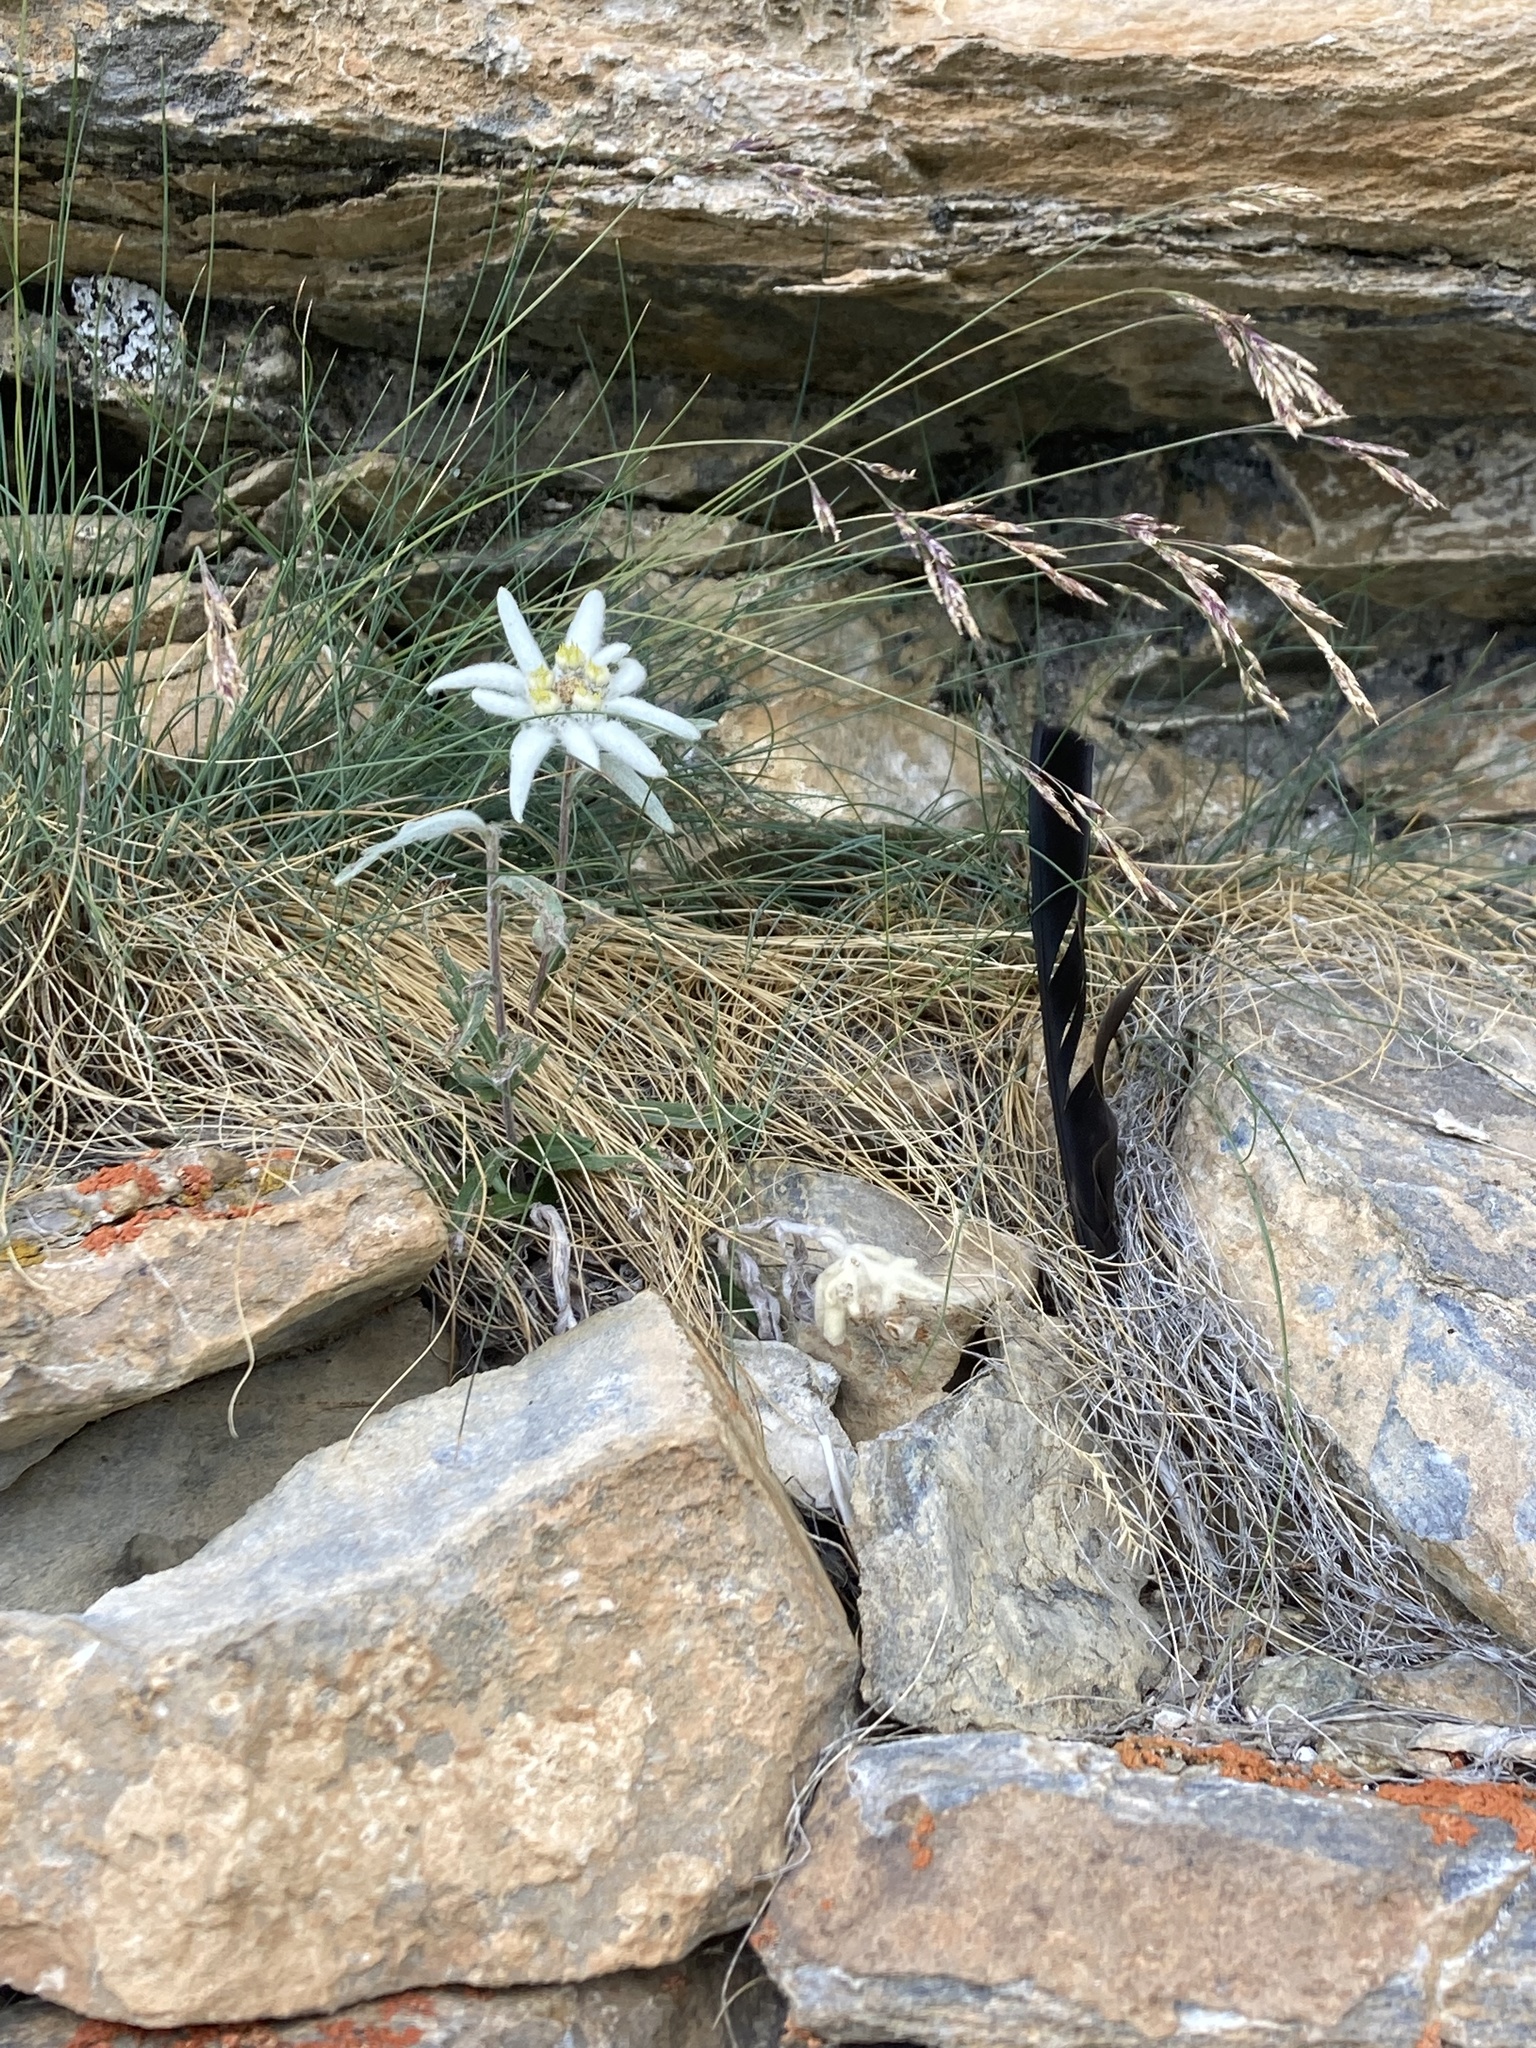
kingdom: Plantae
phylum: Tracheophyta
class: Magnoliopsida
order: Asterales
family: Asteraceae
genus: Leontopodium
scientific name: Leontopodium nivale
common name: Edelweiss
